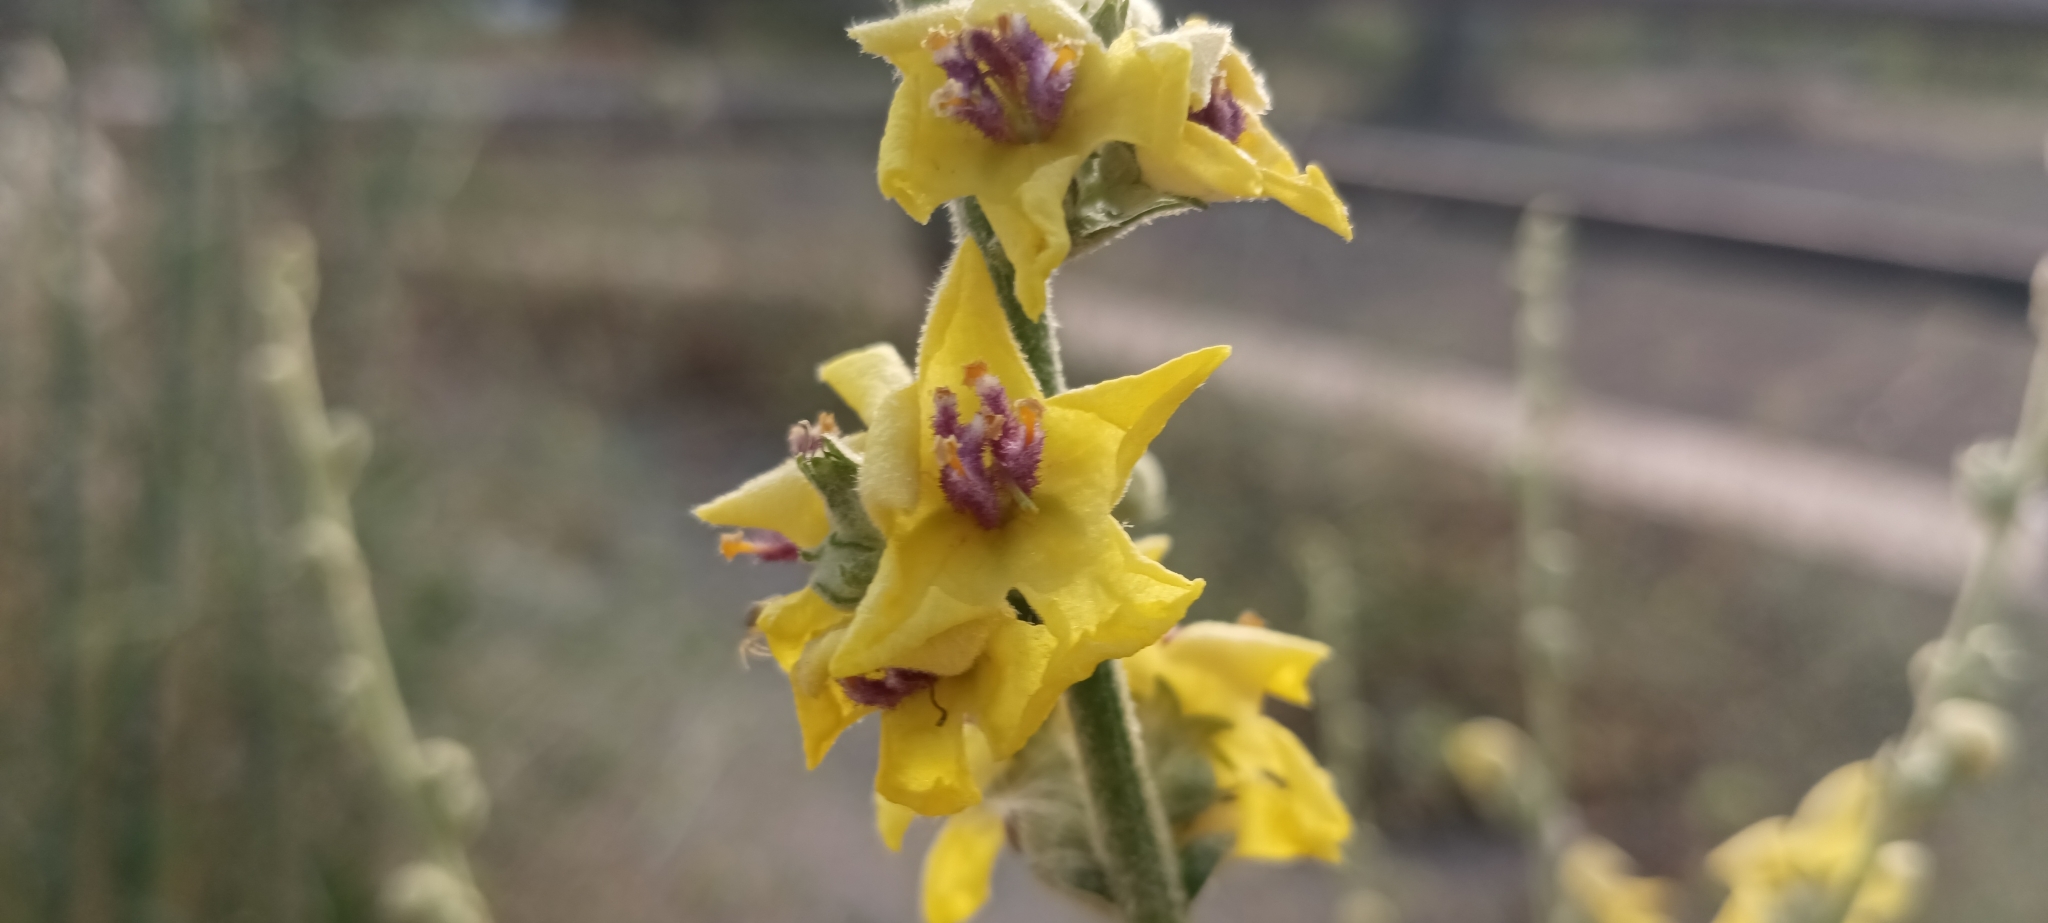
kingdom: Plantae
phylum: Tracheophyta
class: Magnoliopsida
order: Lamiales
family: Scrophulariaceae
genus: Verbascum
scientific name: Verbascum sinuatum
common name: Wavyleaf mullein
